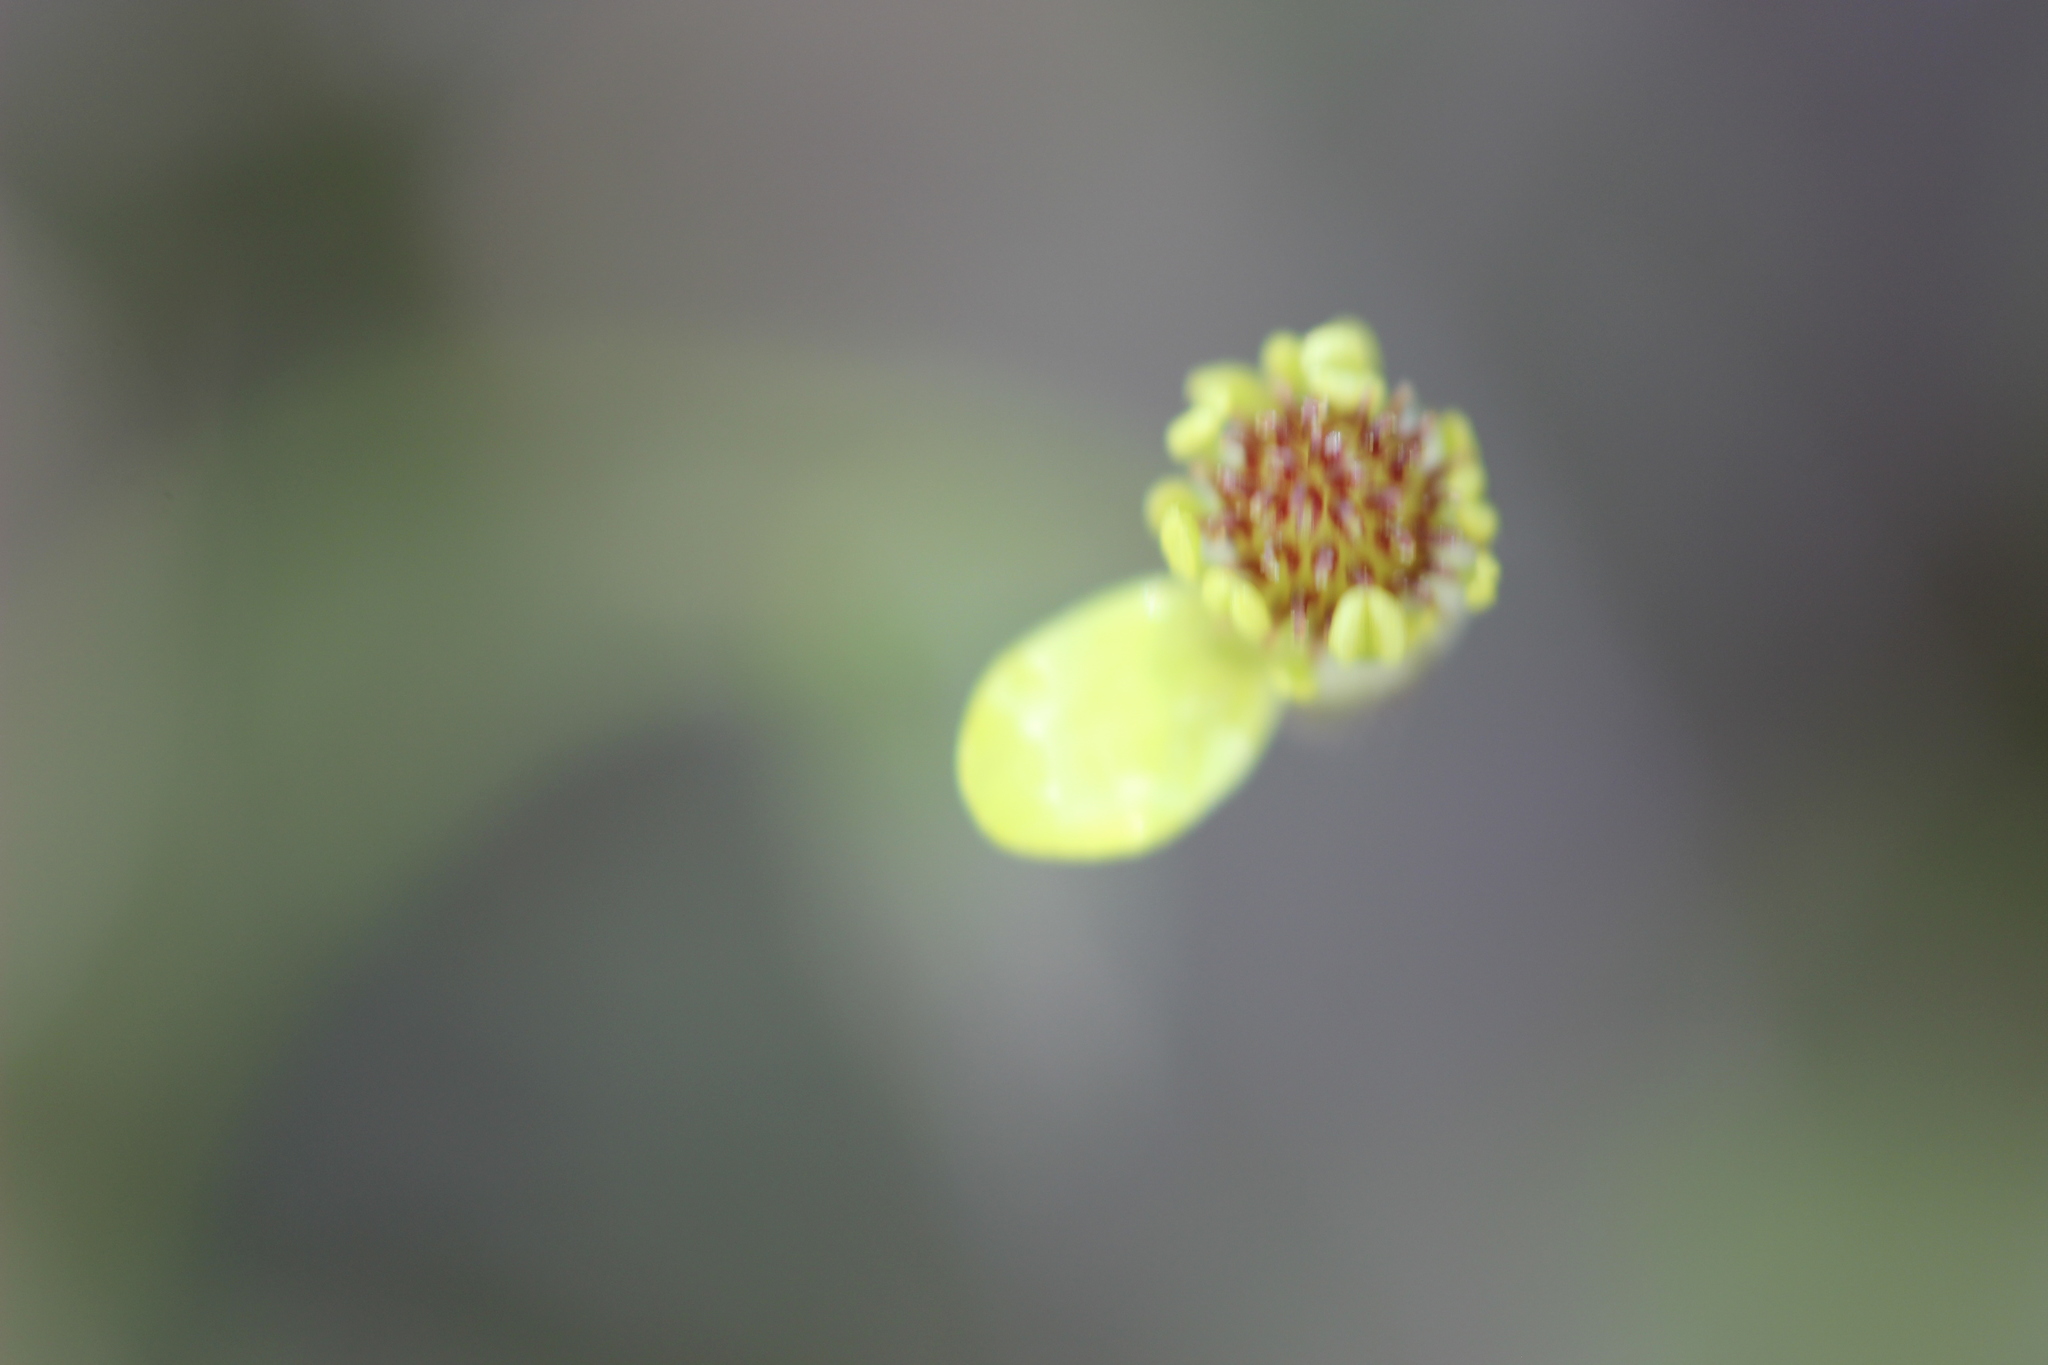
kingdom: Plantae
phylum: Tracheophyta
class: Magnoliopsida
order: Ranunculales
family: Ranunculaceae
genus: Ranunculus
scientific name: Ranunculus reflexus
